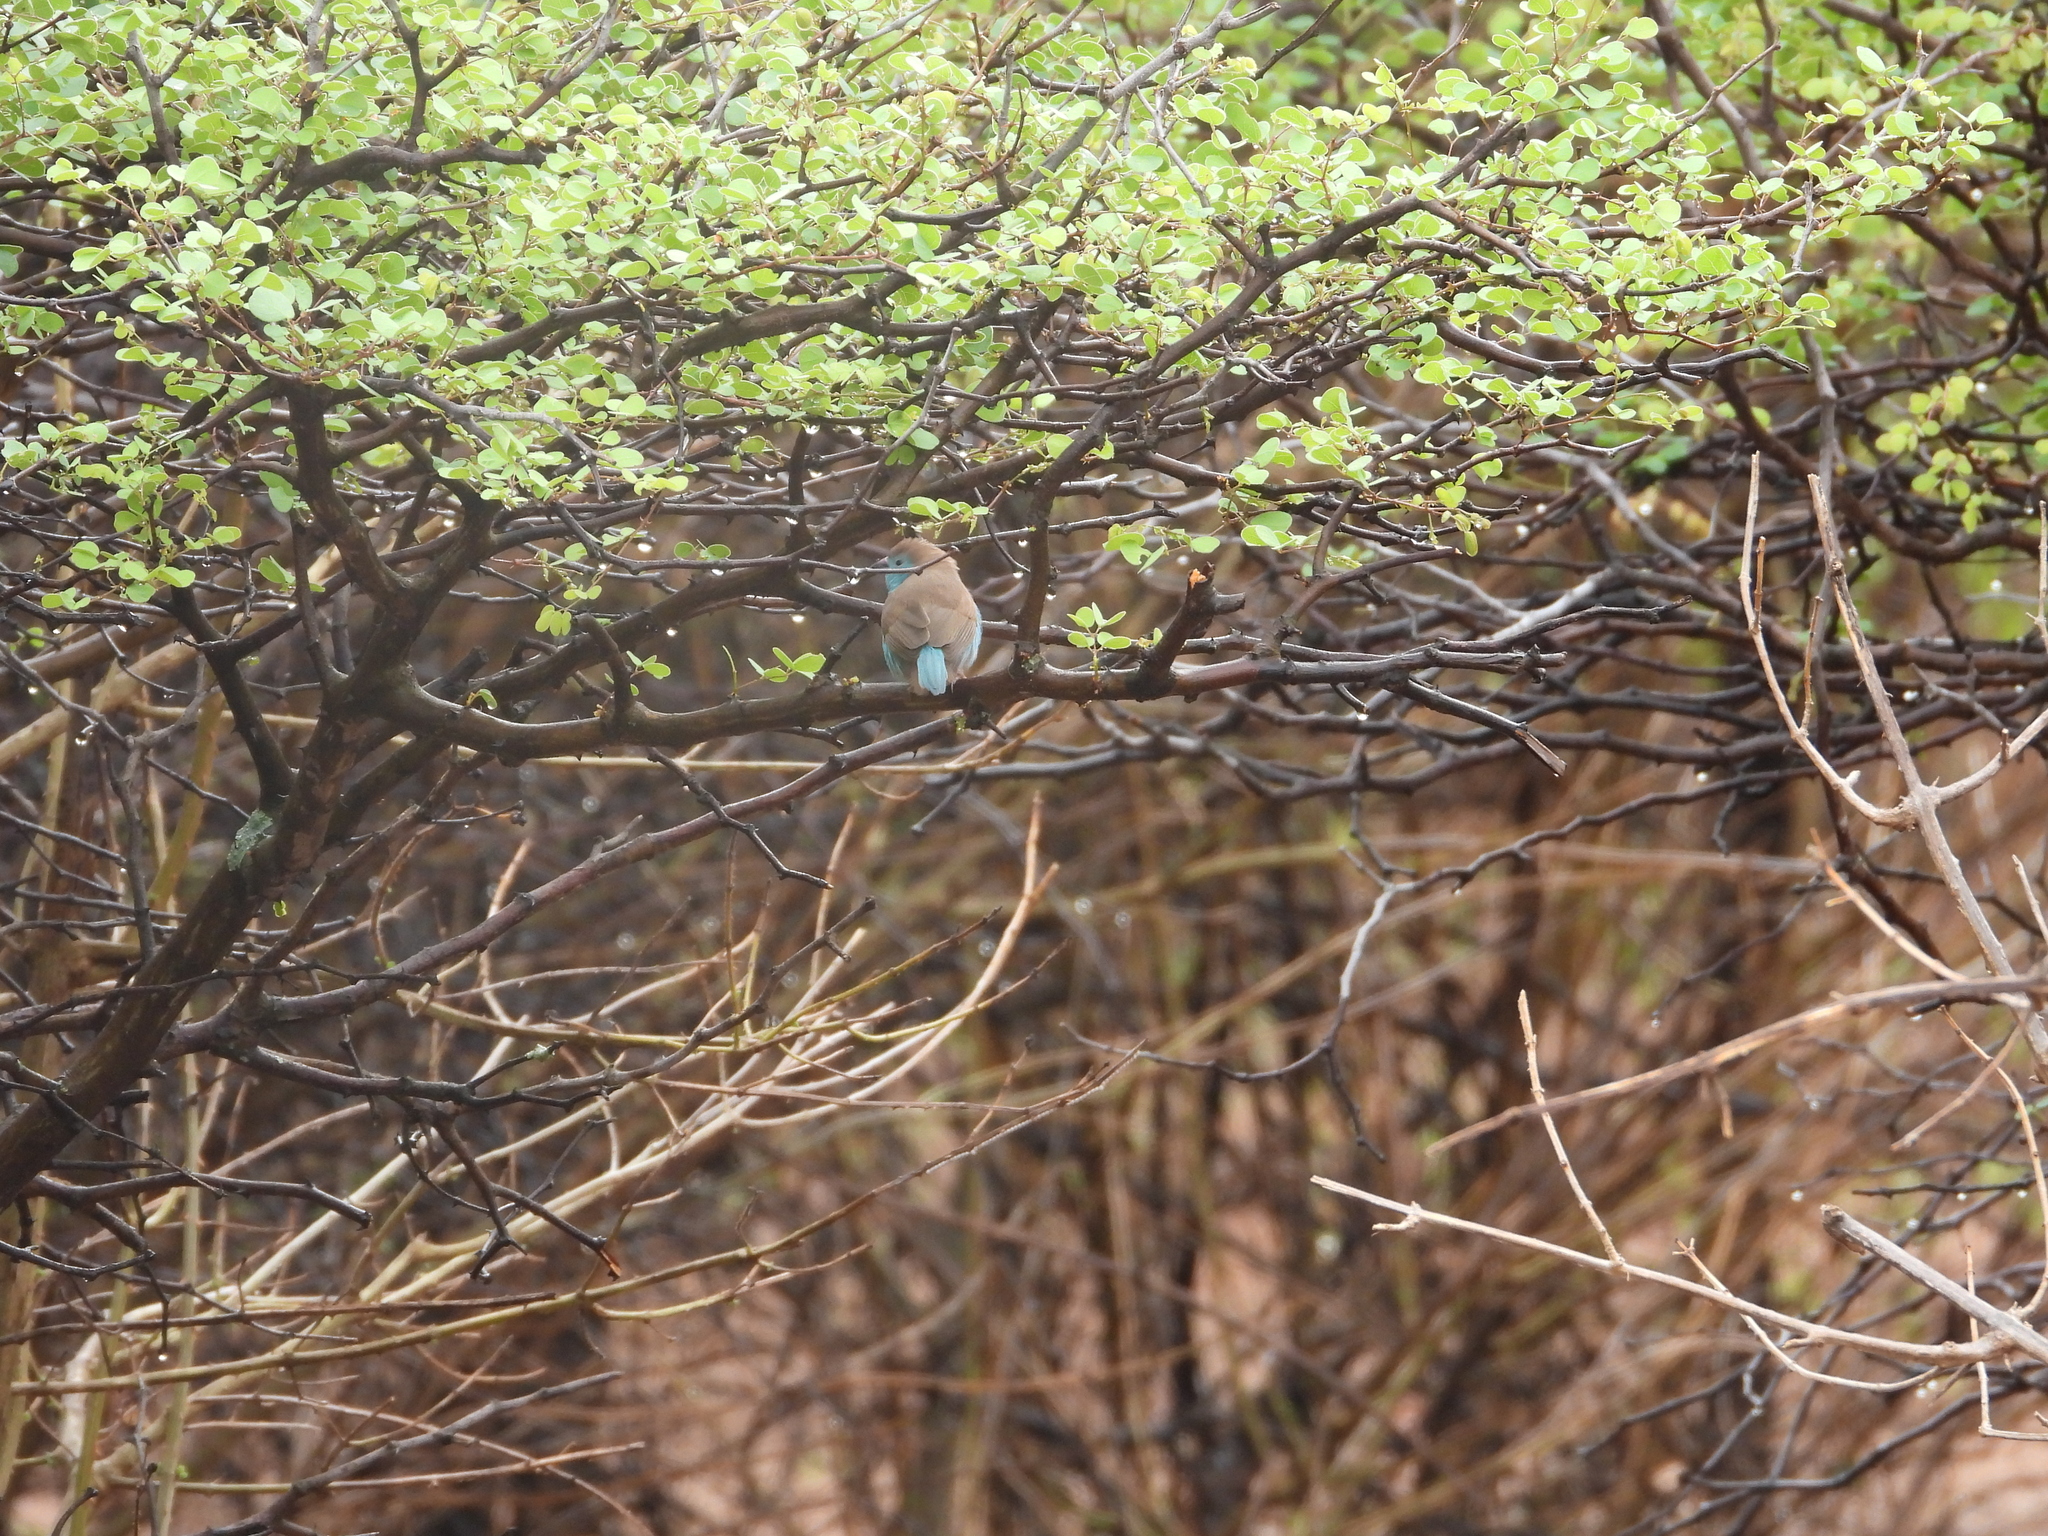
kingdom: Animalia
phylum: Chordata
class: Aves
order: Passeriformes
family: Estrildidae
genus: Uraeginthus
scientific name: Uraeginthus angolensis
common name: Blue waxbill
